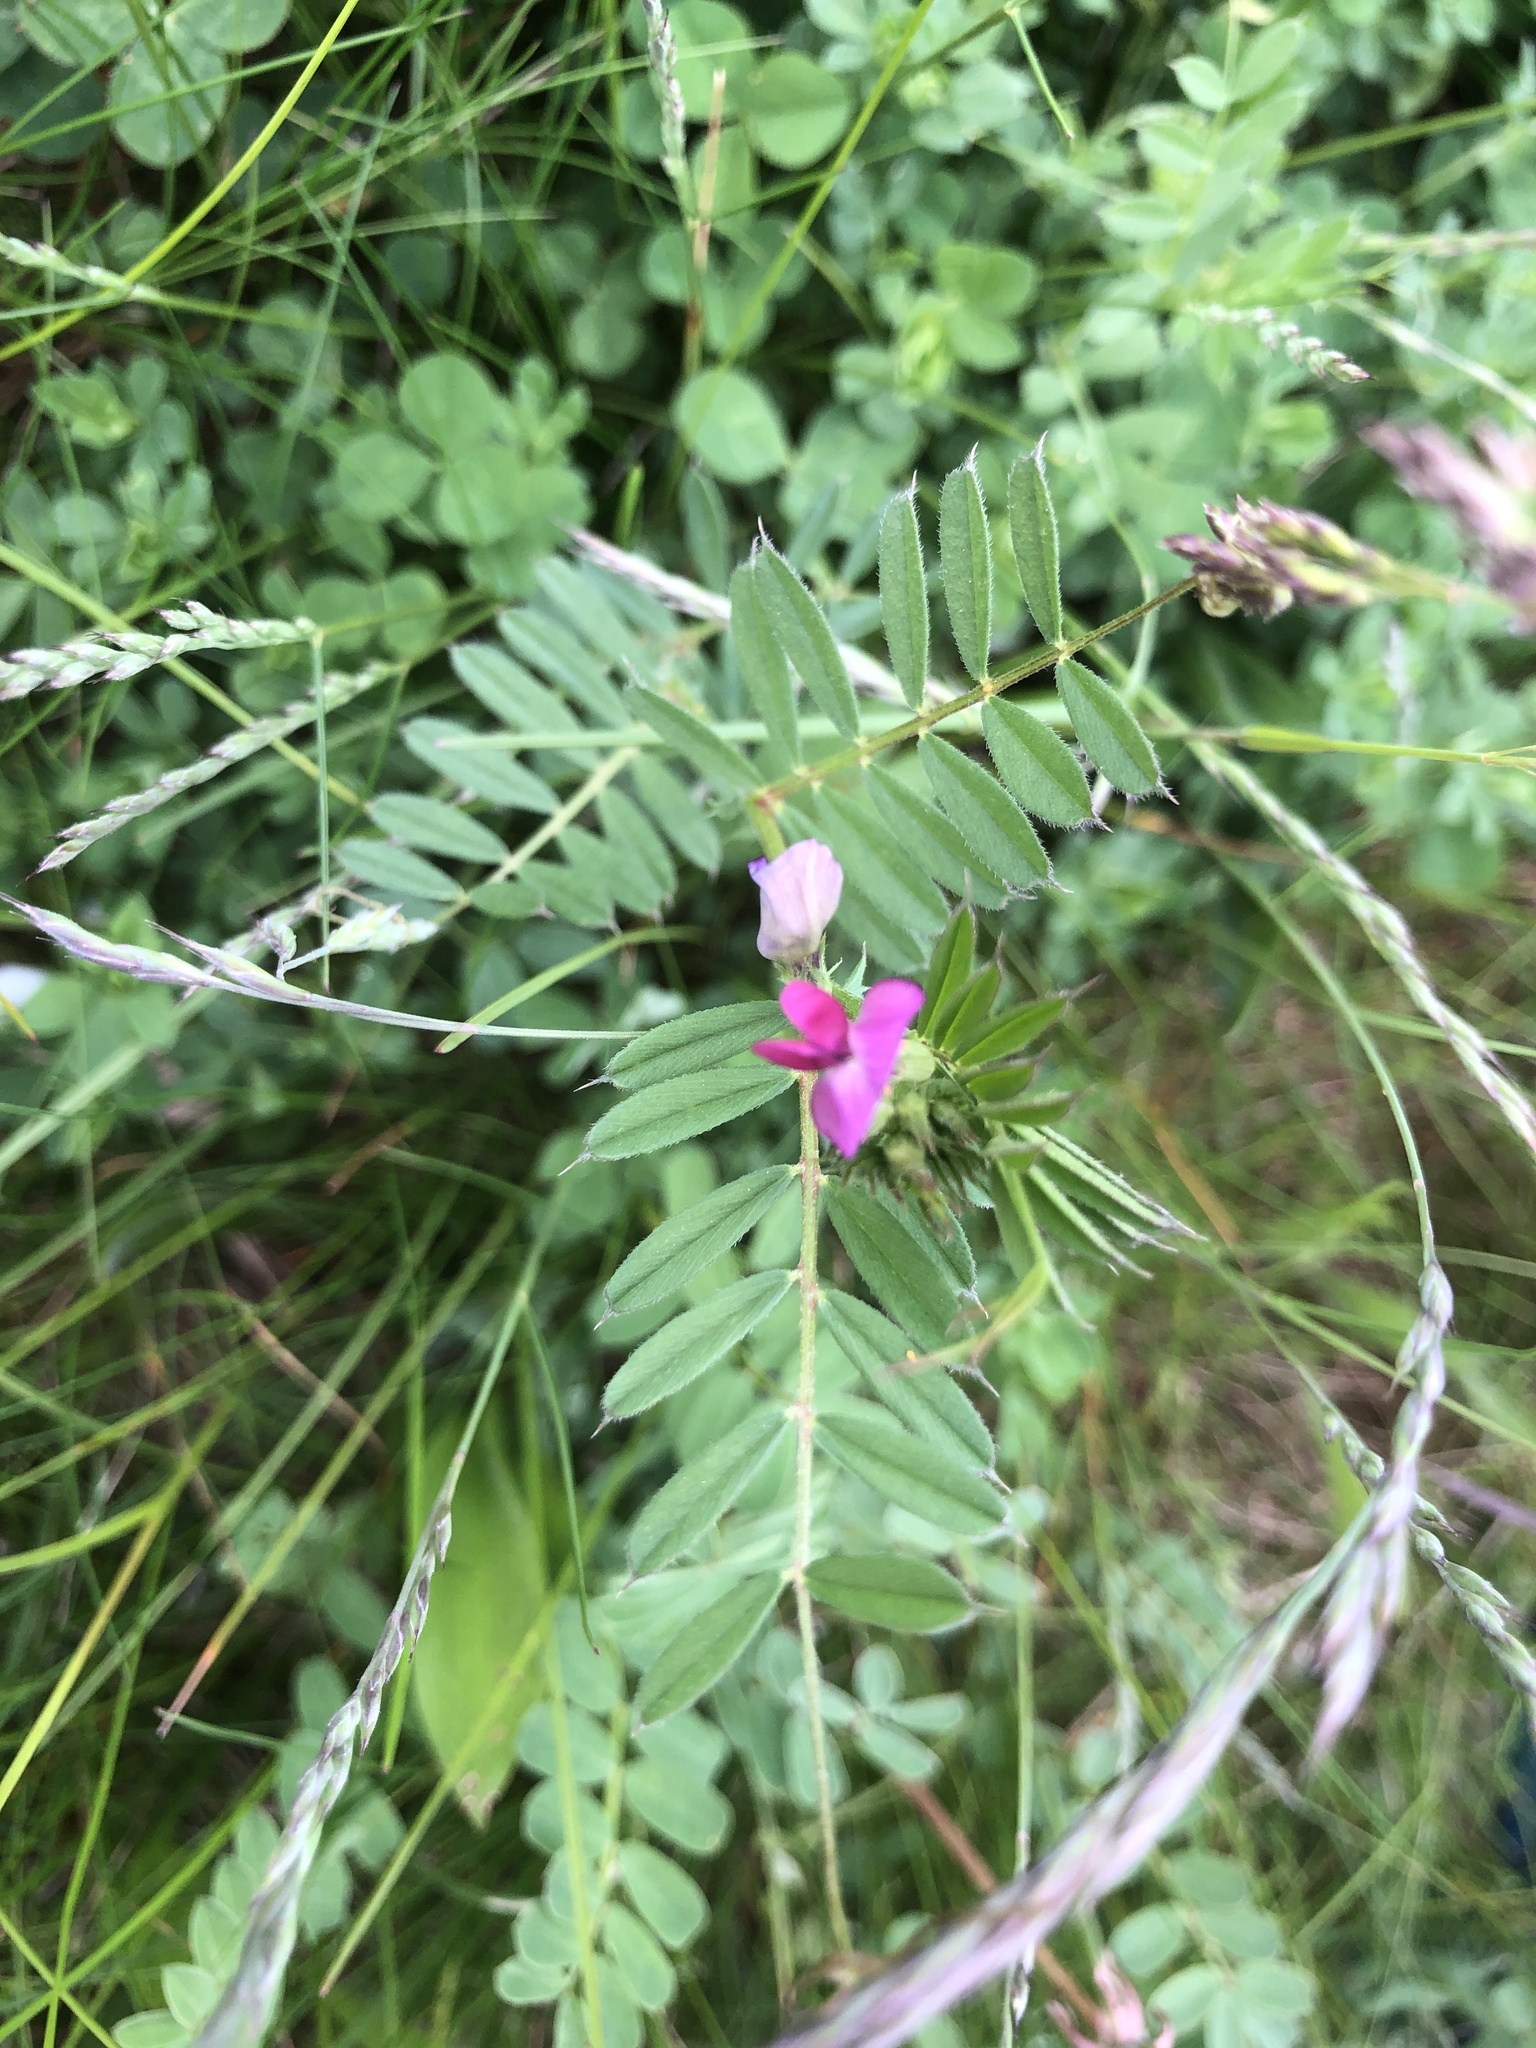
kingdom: Plantae
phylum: Tracheophyta
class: Magnoliopsida
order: Fabales
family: Fabaceae
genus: Vicia
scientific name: Vicia sativa
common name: Garden vetch
